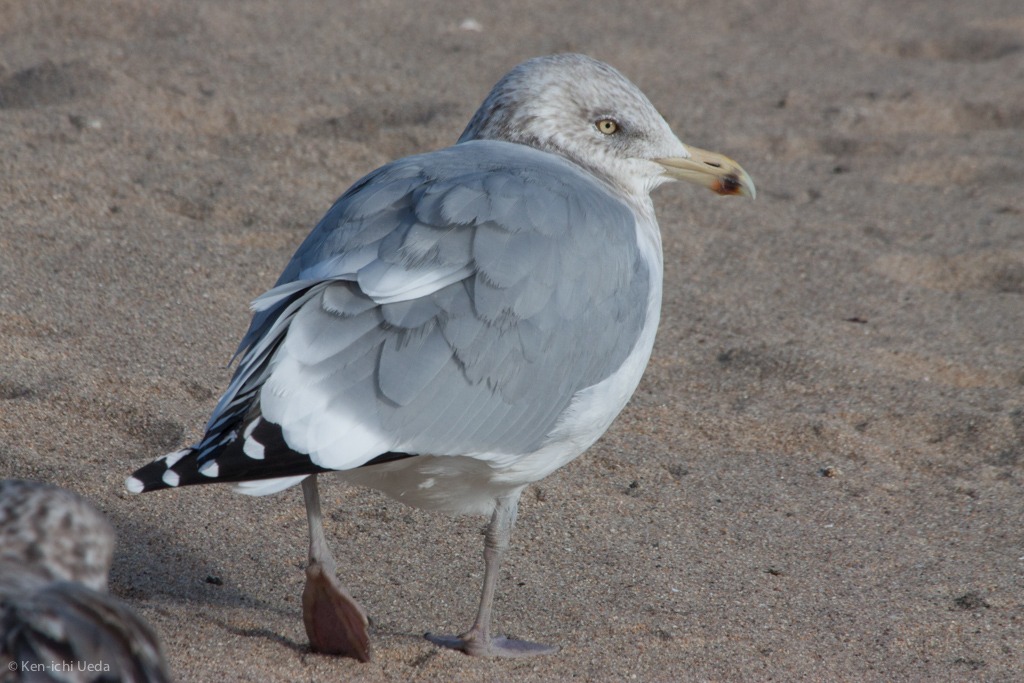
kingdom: Animalia
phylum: Chordata
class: Aves
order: Charadriiformes
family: Laridae
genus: Larus
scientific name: Larus argentatus
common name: Herring gull
